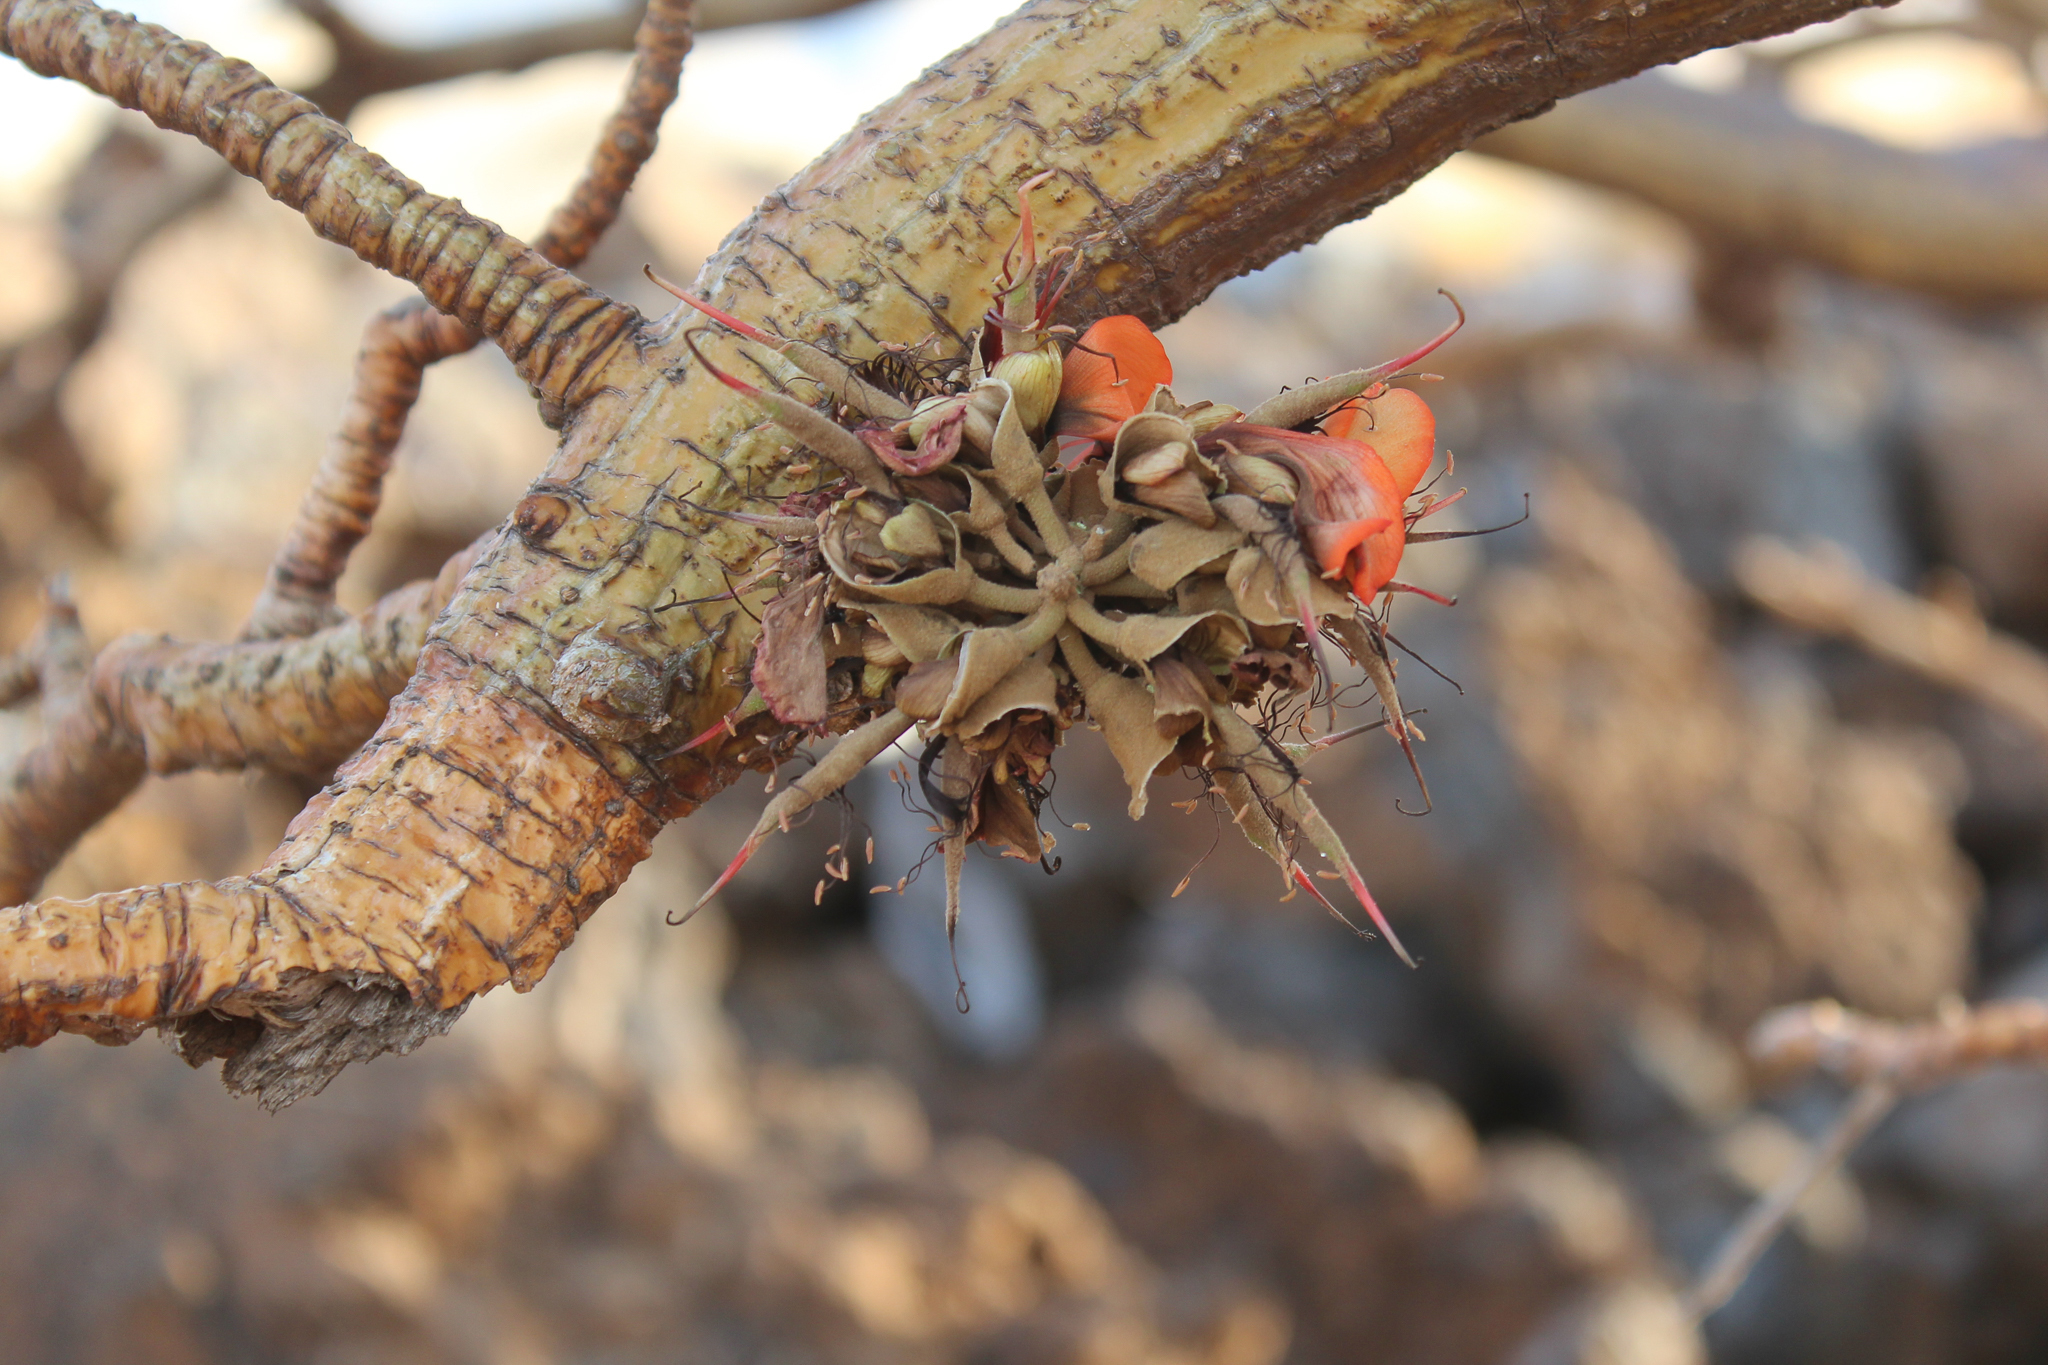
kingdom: Plantae
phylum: Tracheophyta
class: Magnoliopsida
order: Fabales
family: Fabaceae
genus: Erythrina
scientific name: Erythrina sandwicensis
